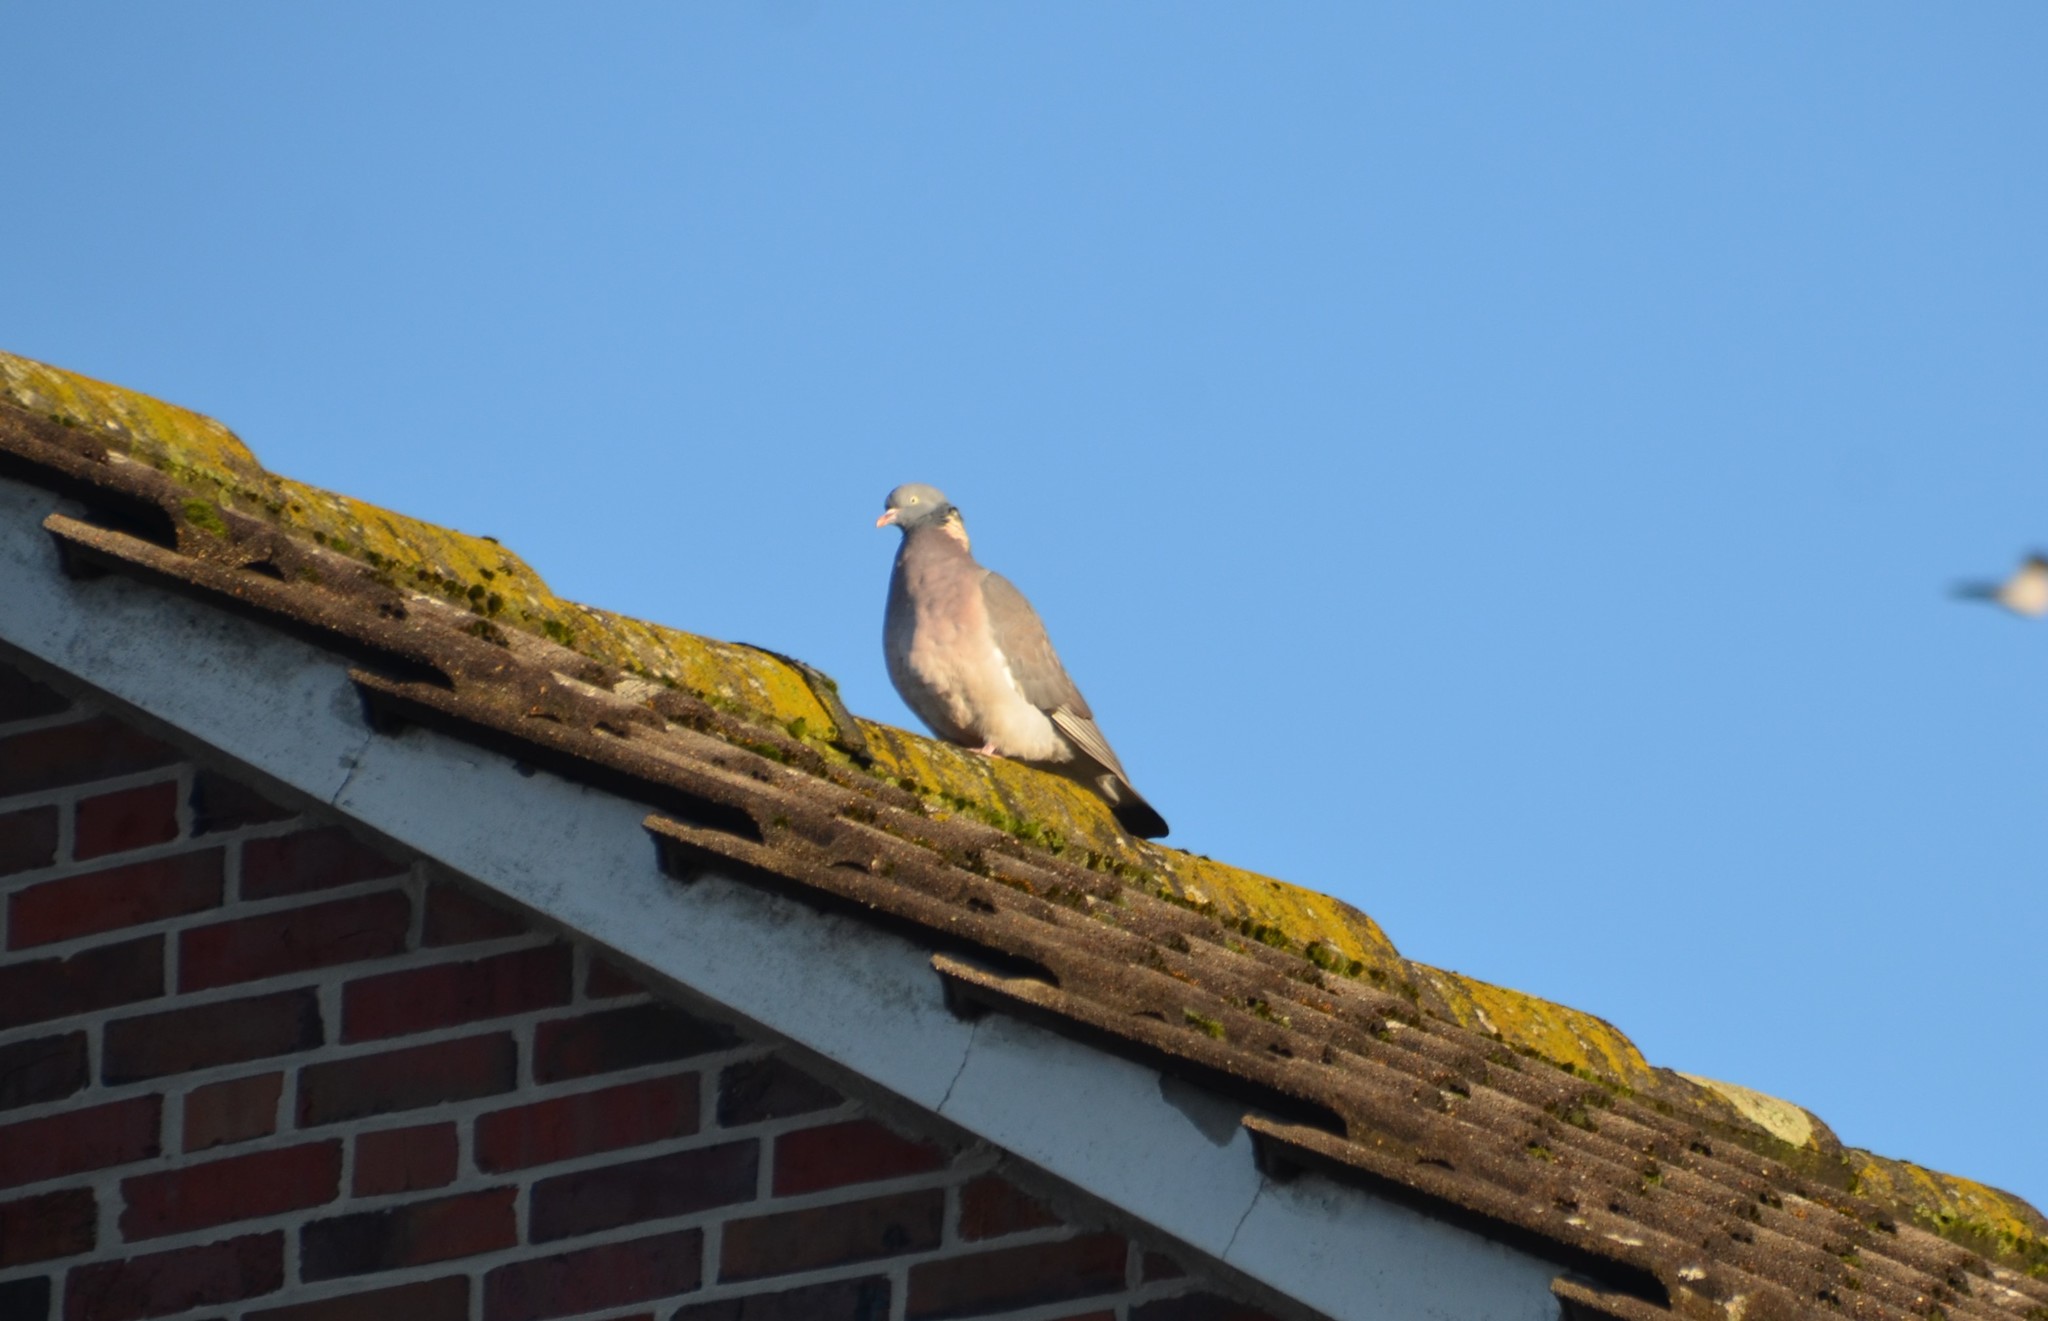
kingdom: Animalia
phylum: Chordata
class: Aves
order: Columbiformes
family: Columbidae
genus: Columba
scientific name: Columba palumbus
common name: Common wood pigeon
